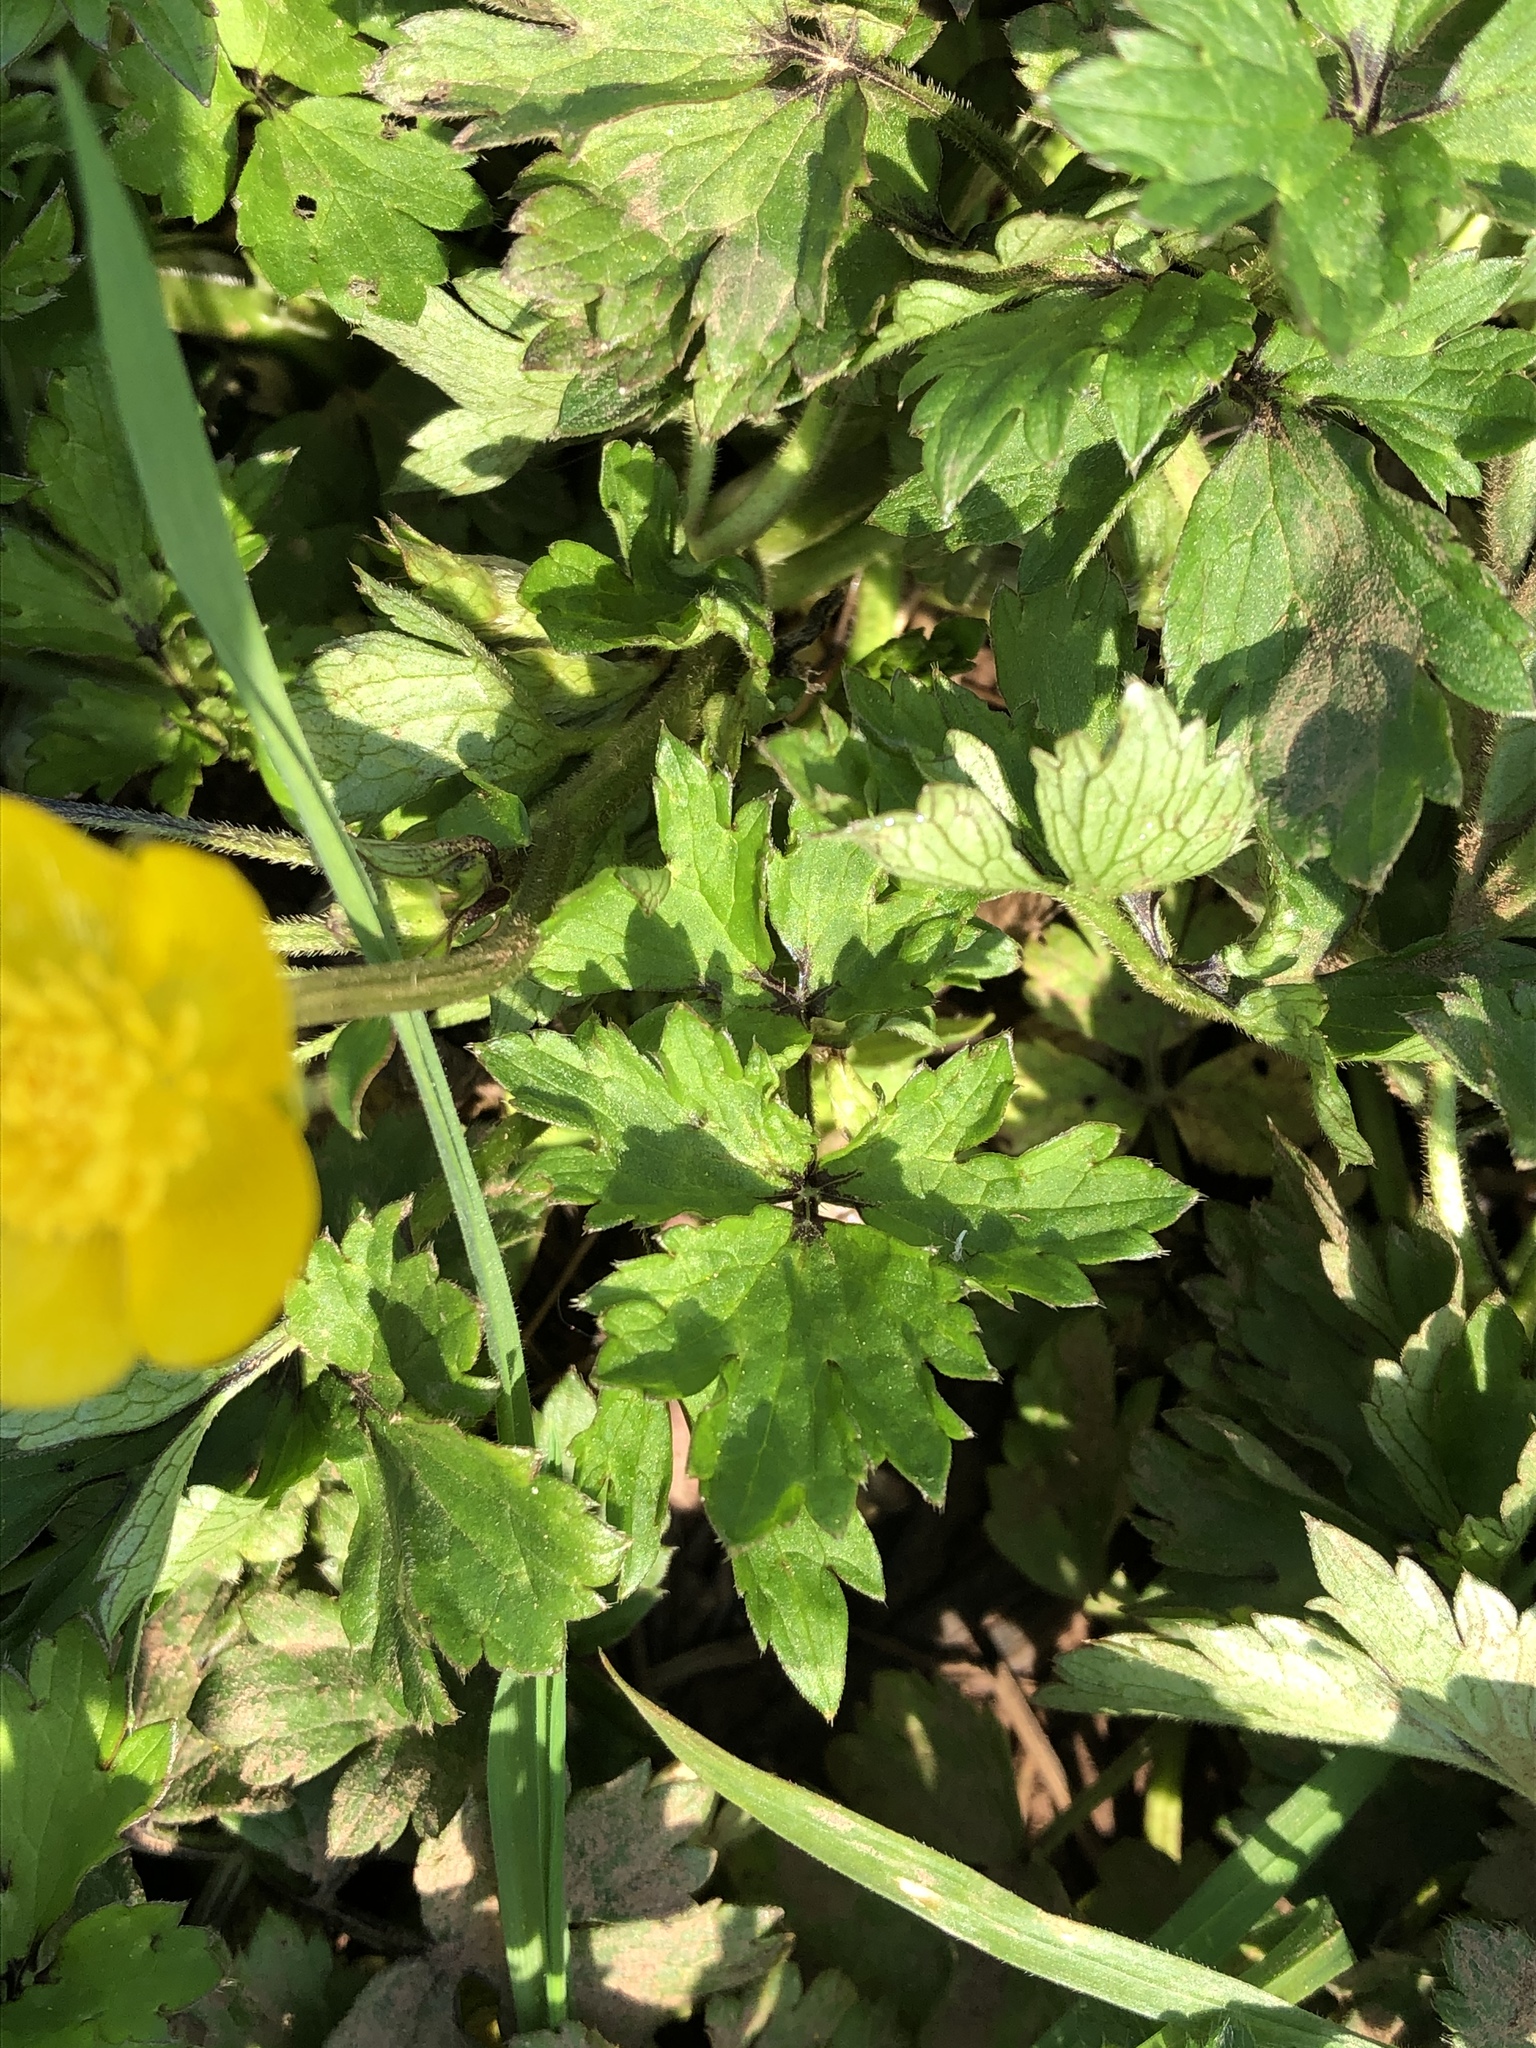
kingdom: Plantae
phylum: Tracheophyta
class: Magnoliopsida
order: Ranunculales
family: Ranunculaceae
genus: Ranunculus
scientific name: Ranunculus repens
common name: Creeping buttercup
